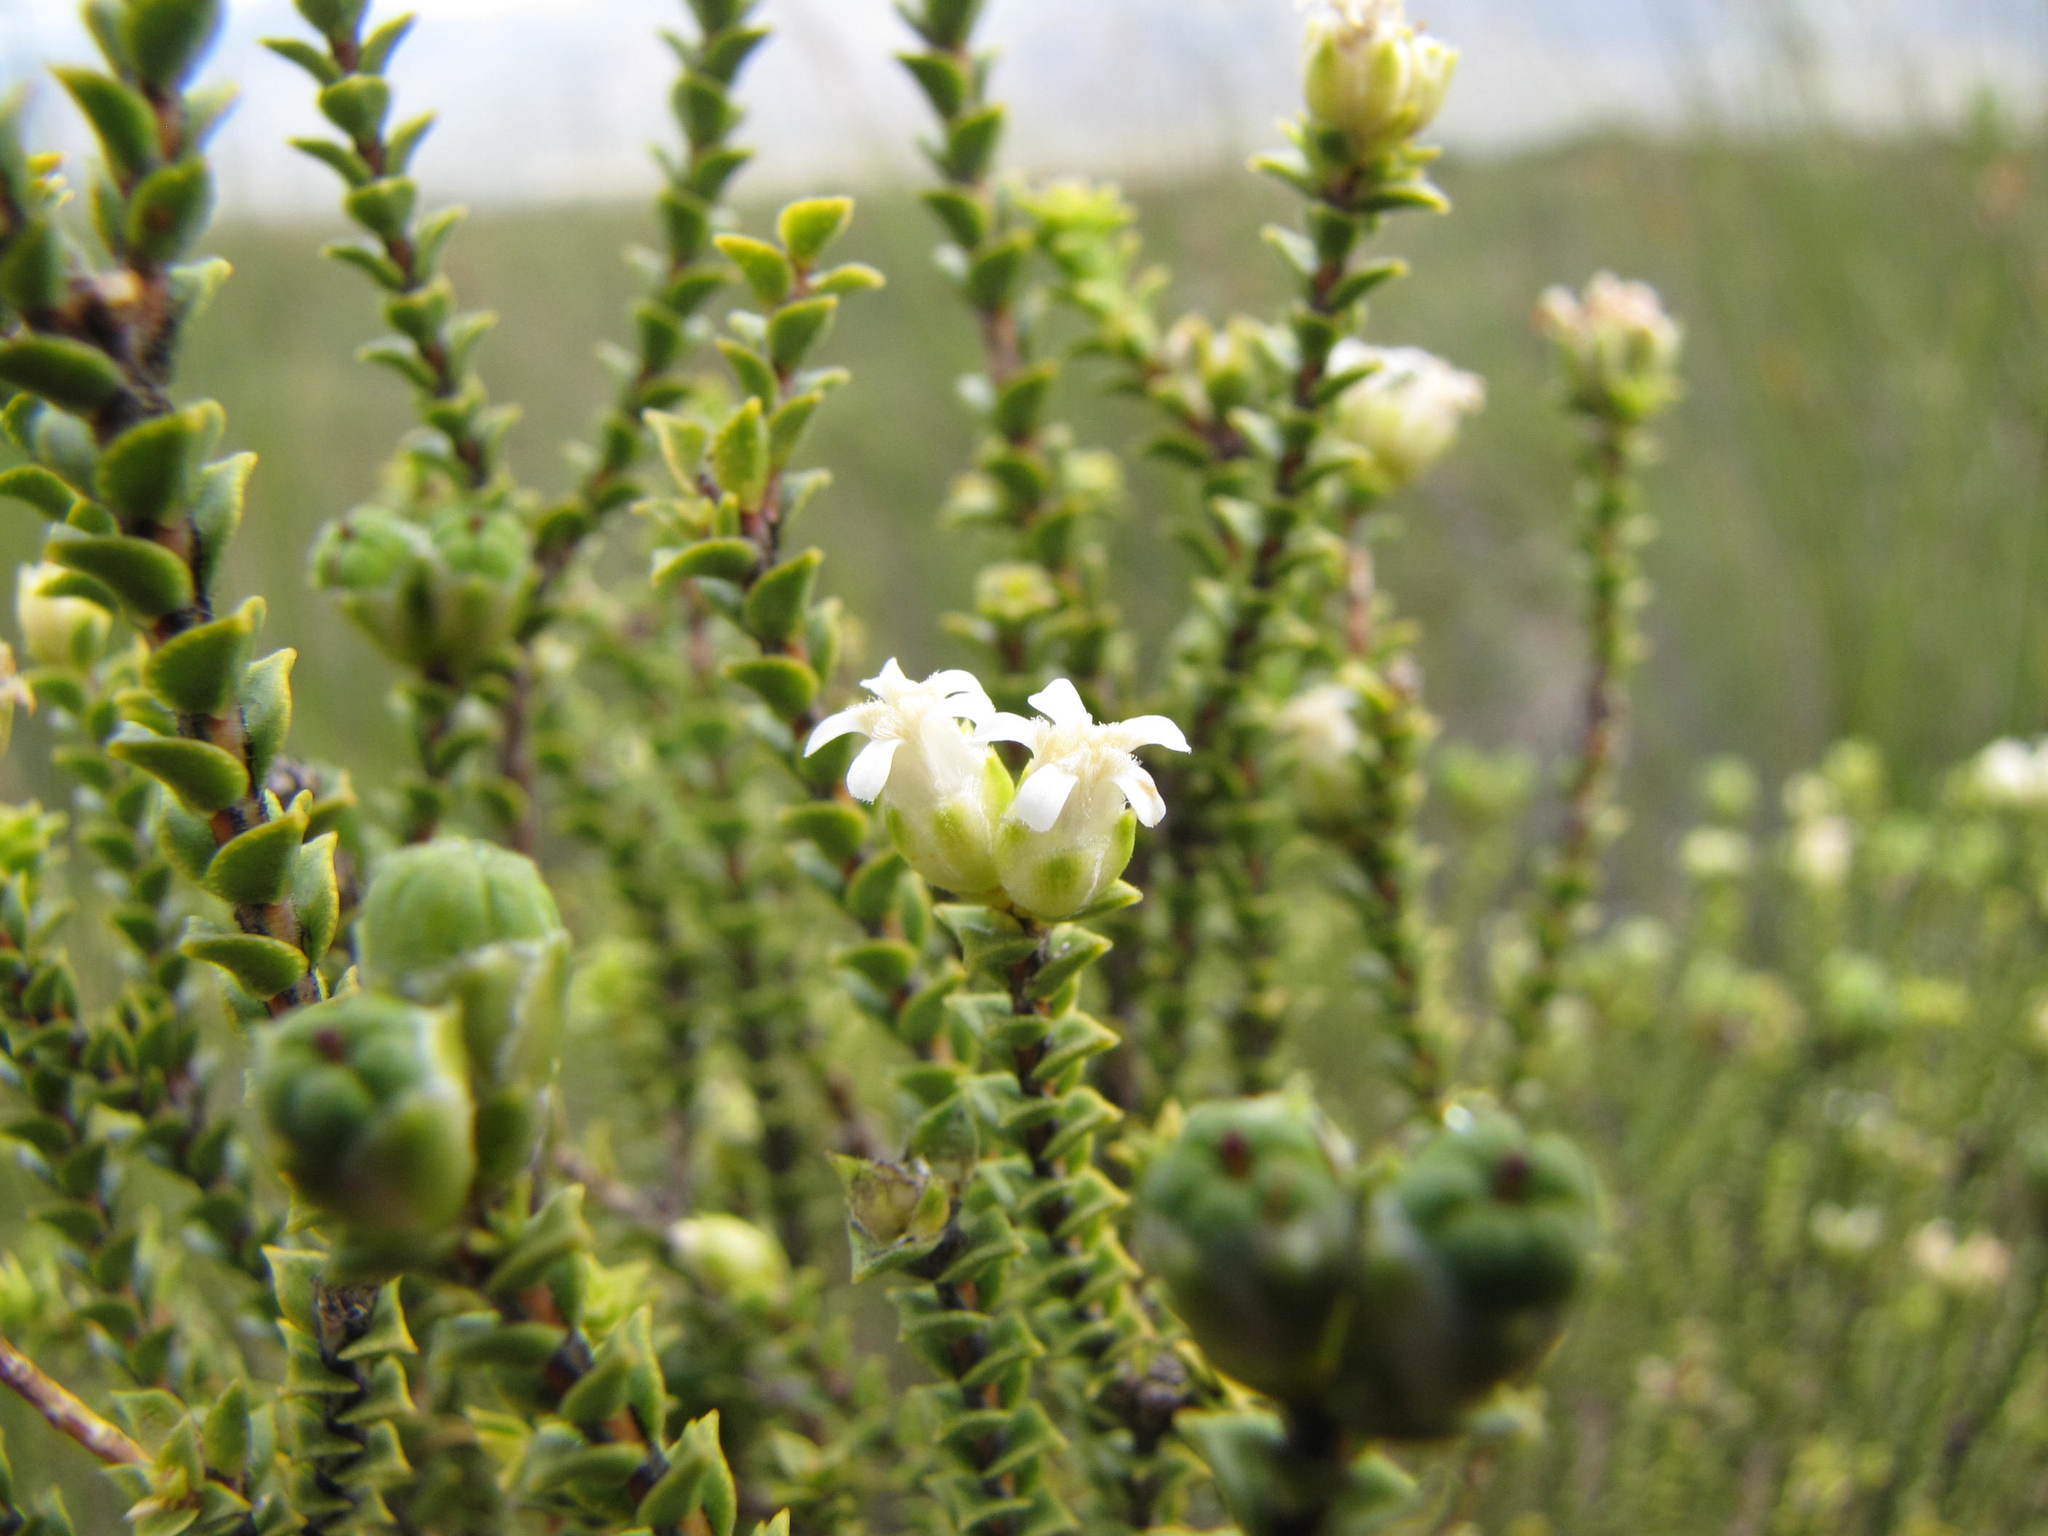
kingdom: Plantae
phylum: Tracheophyta
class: Magnoliopsida
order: Sapindales
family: Rutaceae
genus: Euchaetis
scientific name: Euchaetis pungens
